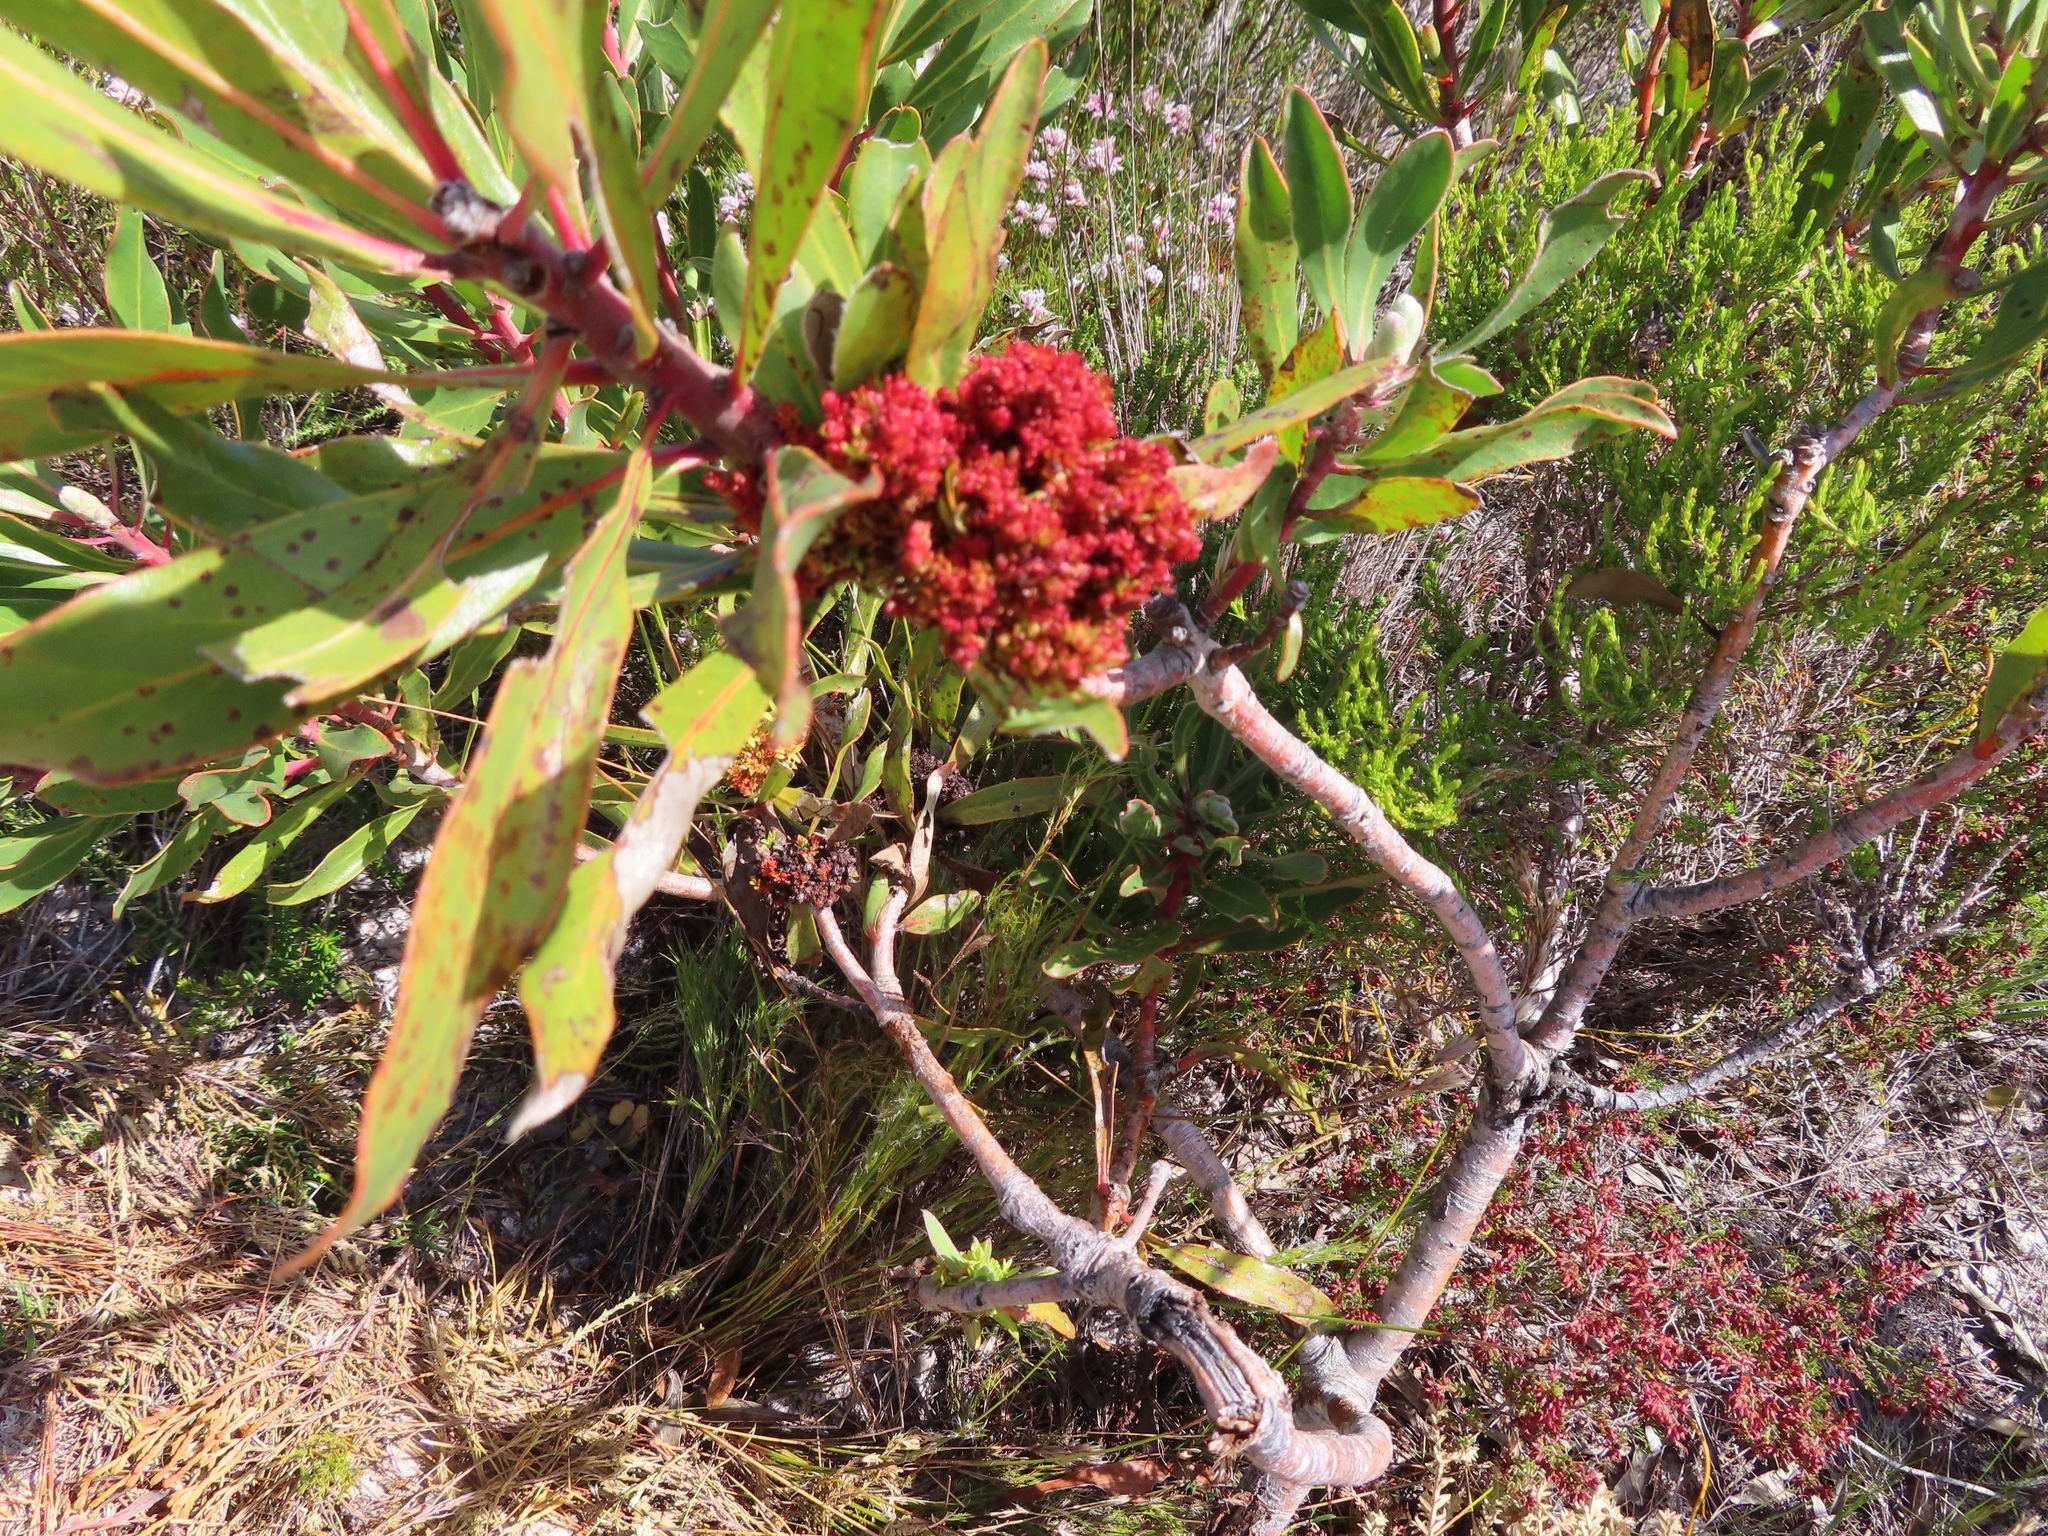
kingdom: Plantae
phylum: Tracheophyta
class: Magnoliopsida
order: Proteales
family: Proteaceae
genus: Protea
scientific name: Protea obtusifolia
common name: Bredasdorp sugarbush
